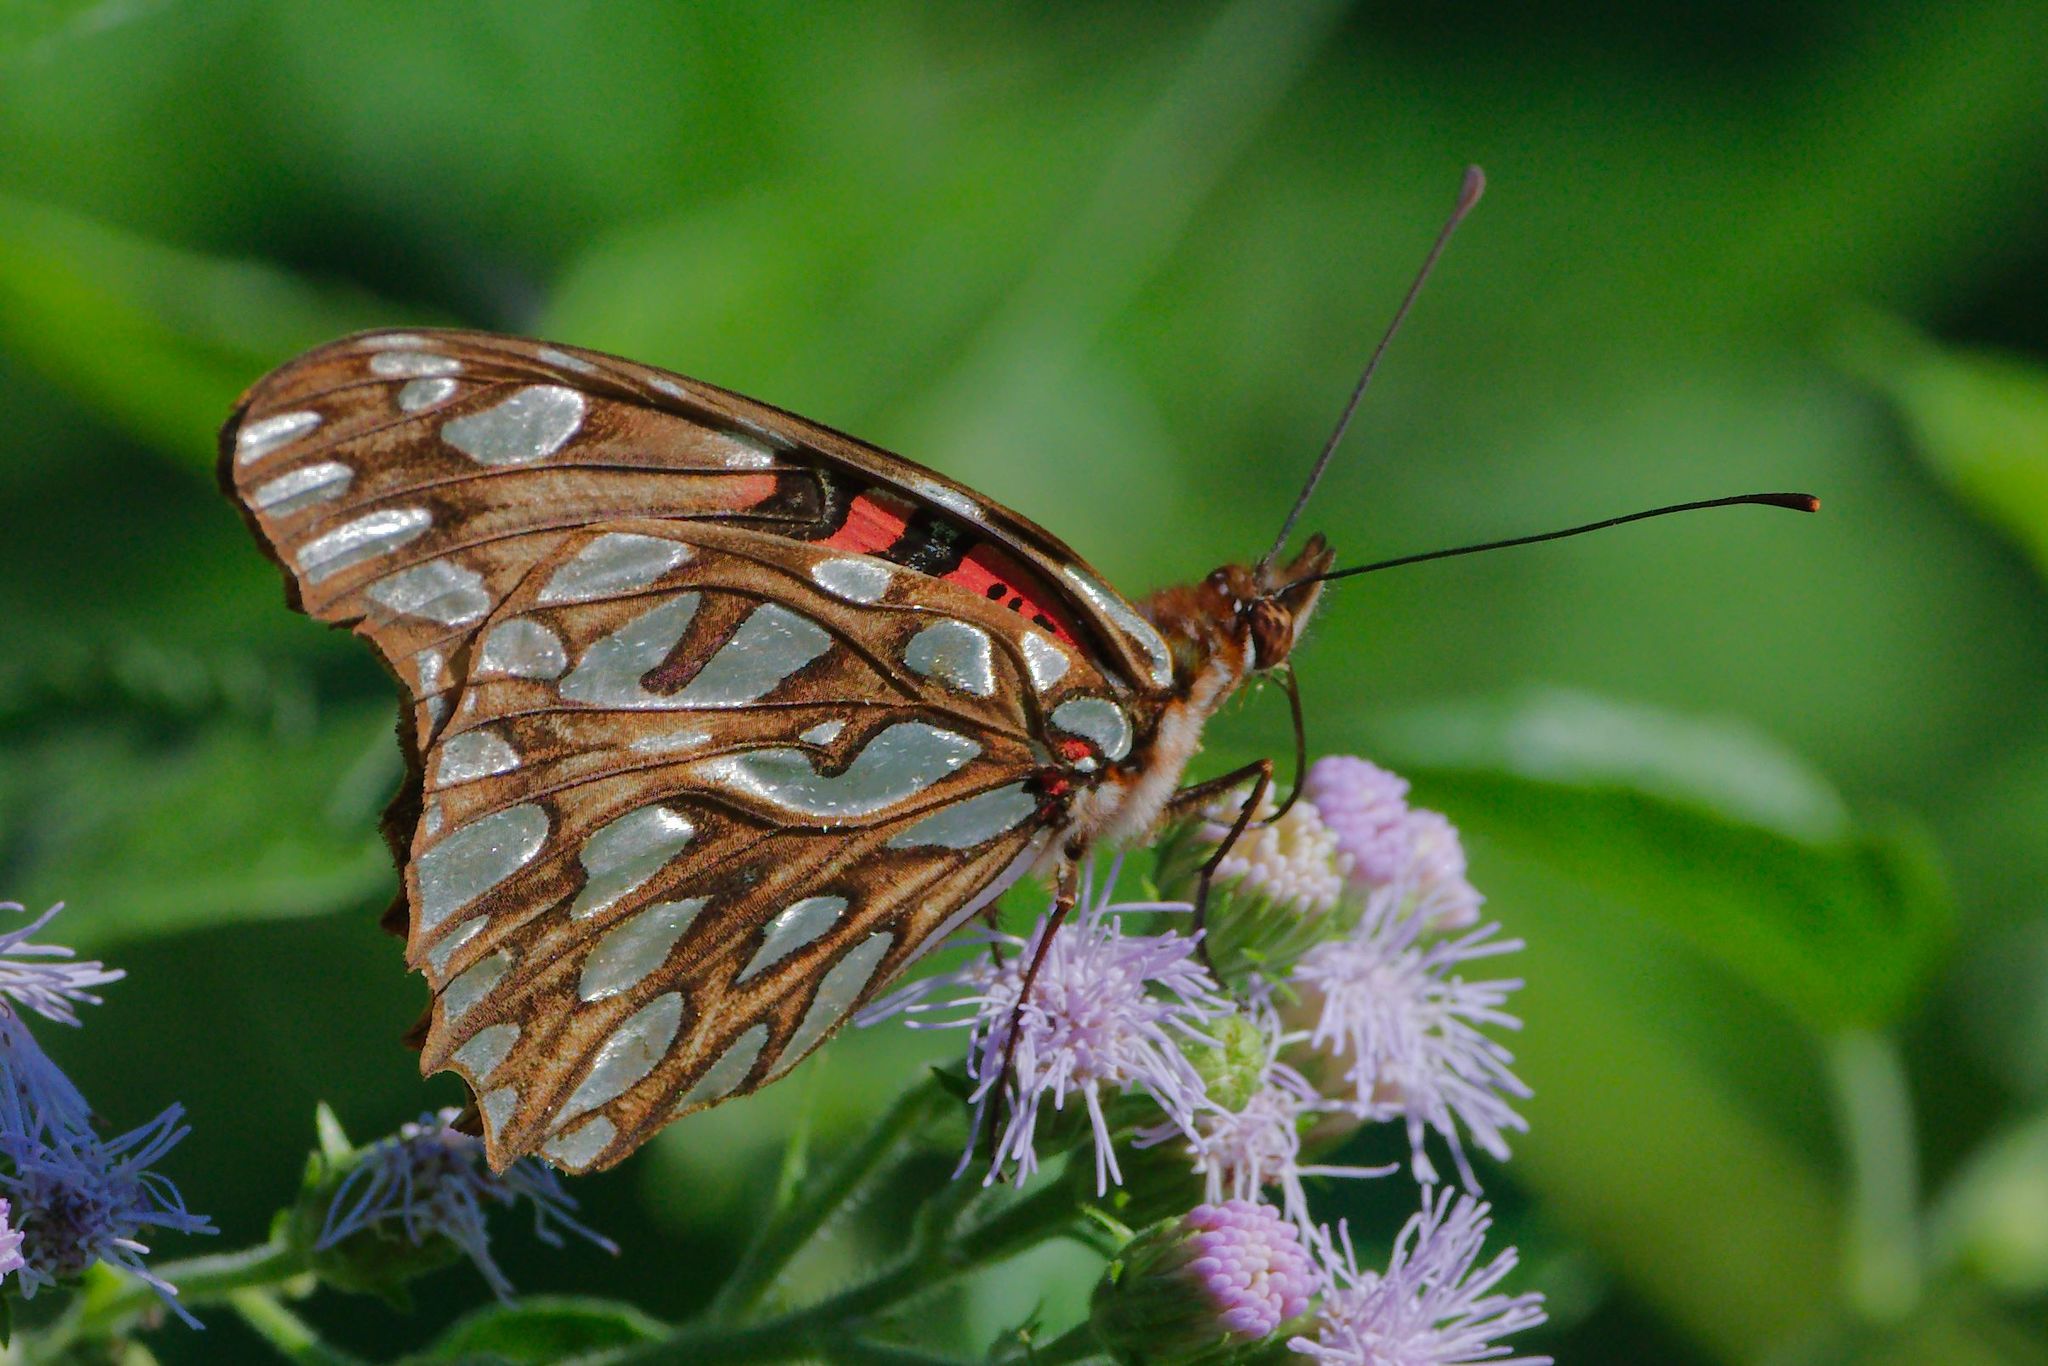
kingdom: Animalia
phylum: Arthropoda
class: Insecta
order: Lepidoptera
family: Nymphalidae
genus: Dione
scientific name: Dione moneta
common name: Mexican silverspot
